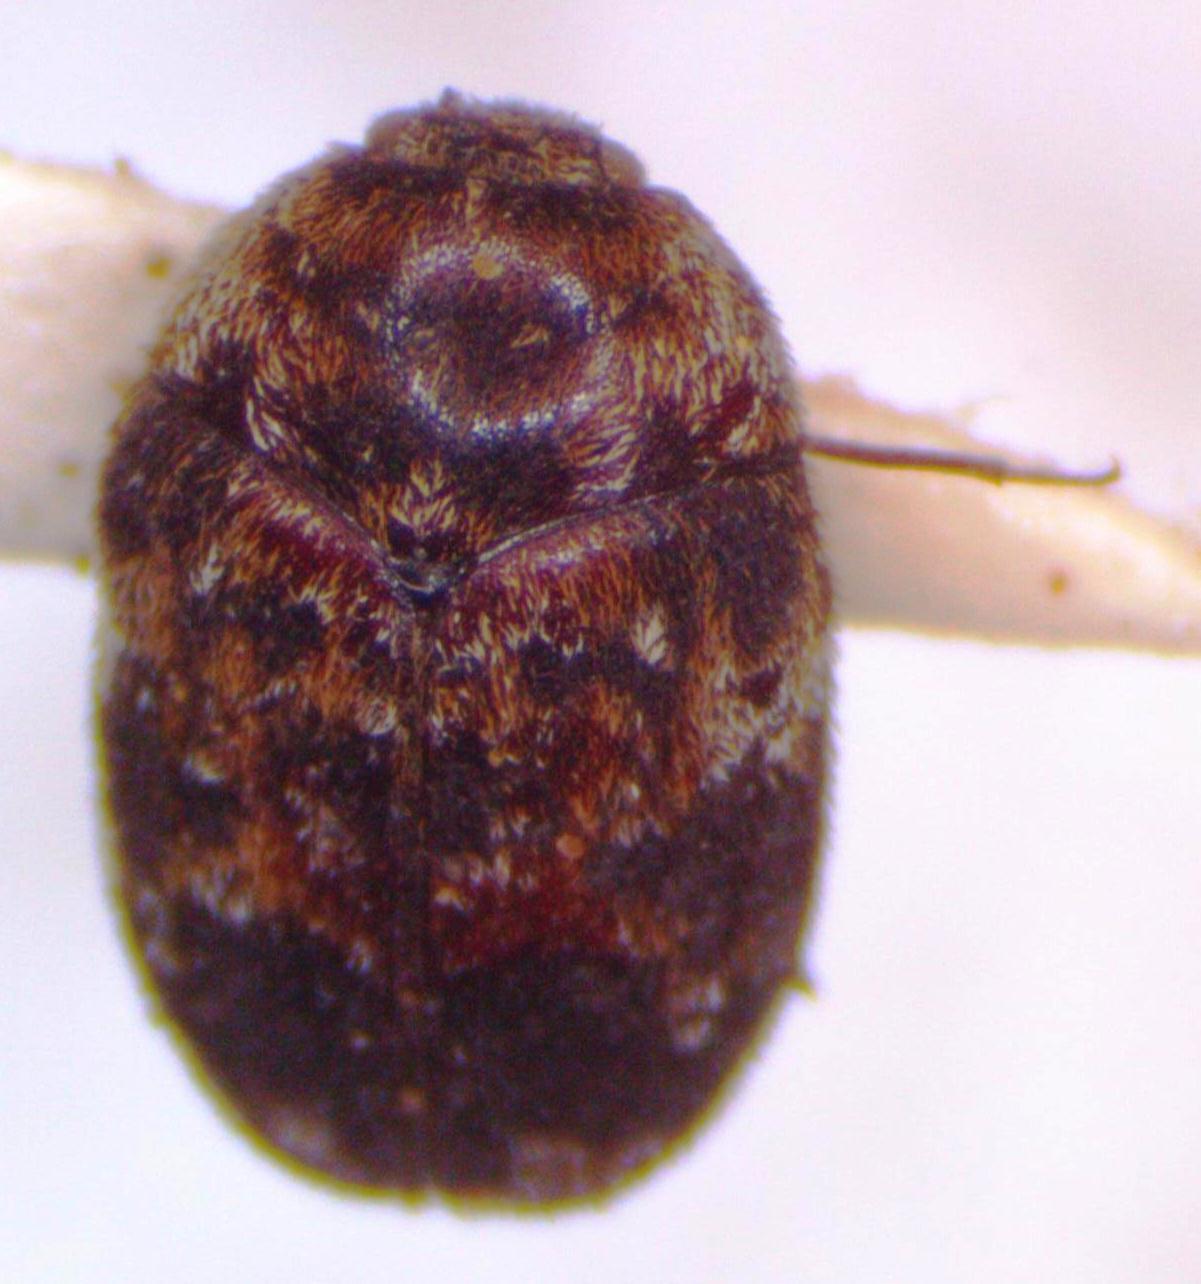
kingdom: Animalia
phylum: Arthropoda
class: Insecta
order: Coleoptera
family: Dermestidae
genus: Trogoderma
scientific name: Trogoderma
